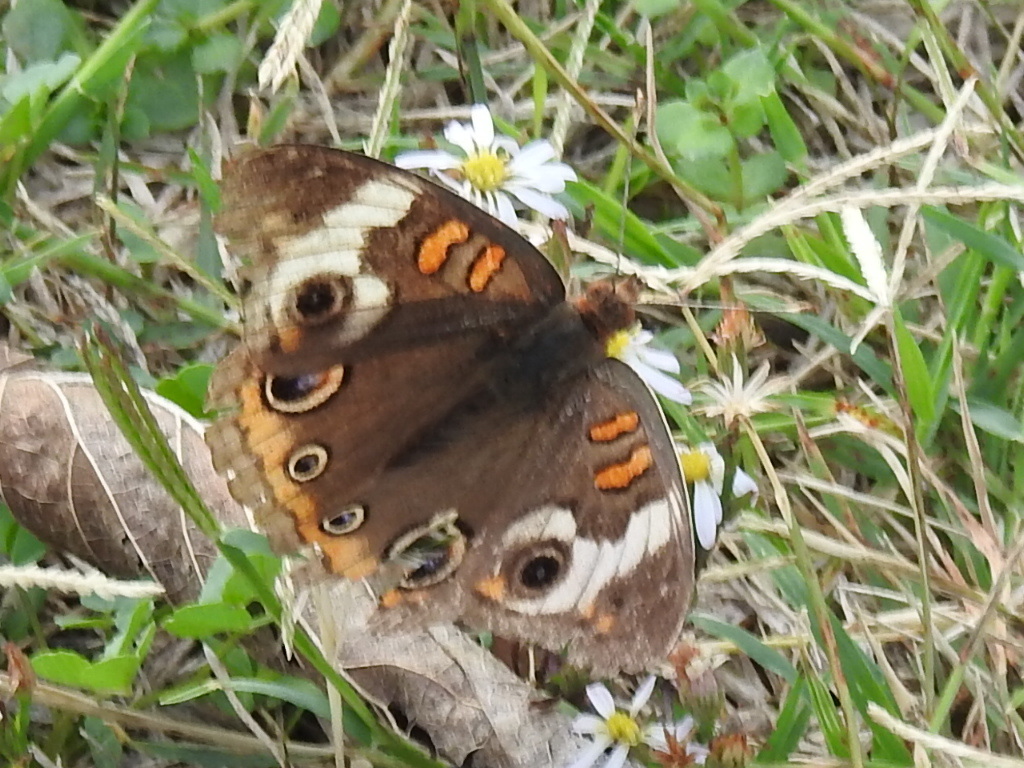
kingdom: Animalia
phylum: Arthropoda
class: Insecta
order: Lepidoptera
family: Nymphalidae
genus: Junonia
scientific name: Junonia coenia
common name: Common buckeye
